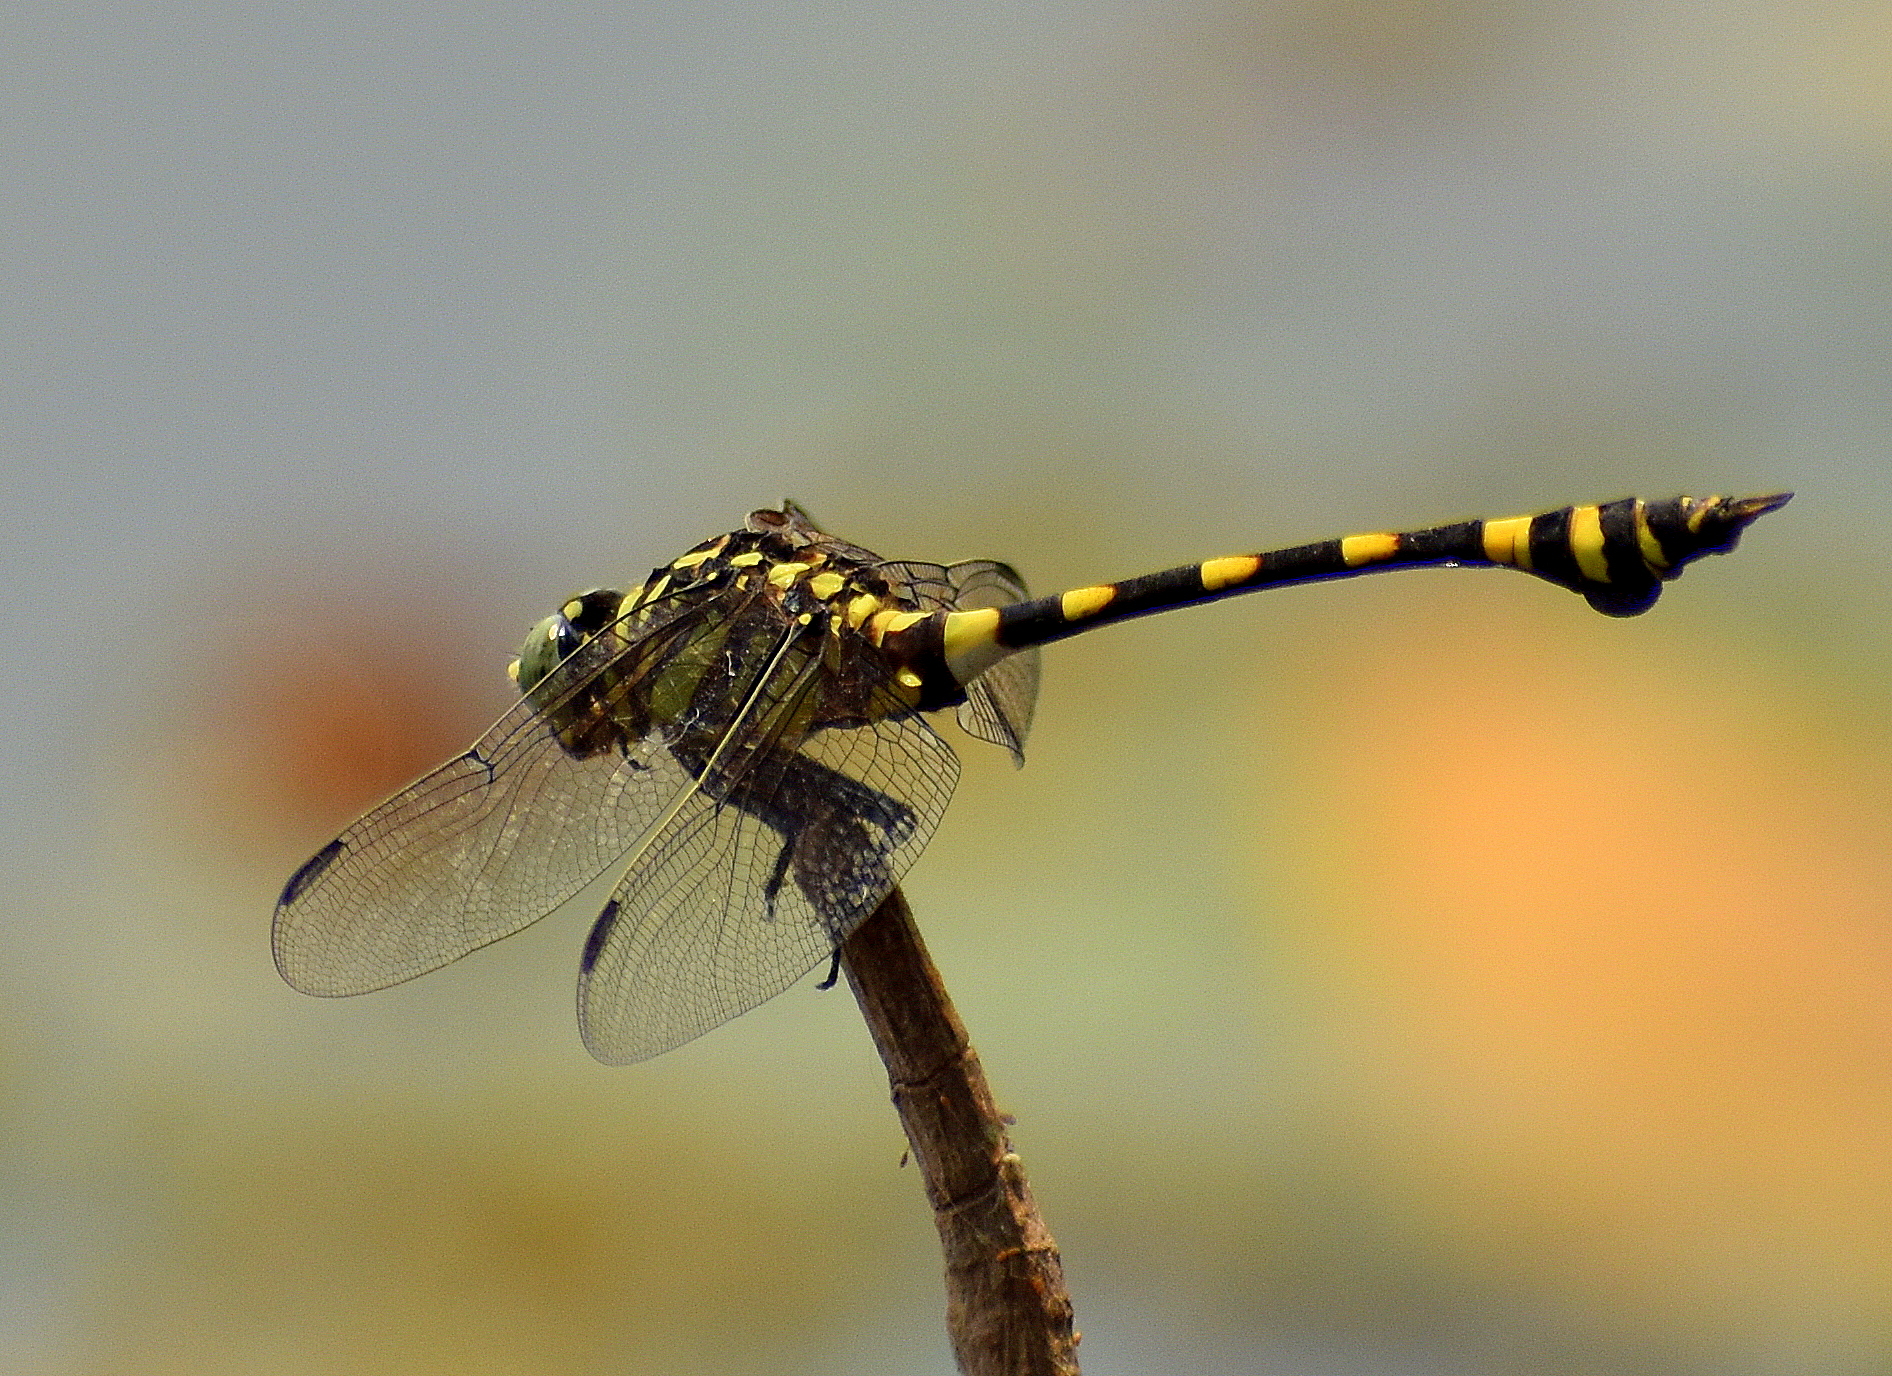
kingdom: Animalia
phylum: Arthropoda
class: Insecta
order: Odonata
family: Gomphidae
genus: Ictinogomphus
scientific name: Ictinogomphus rapax
